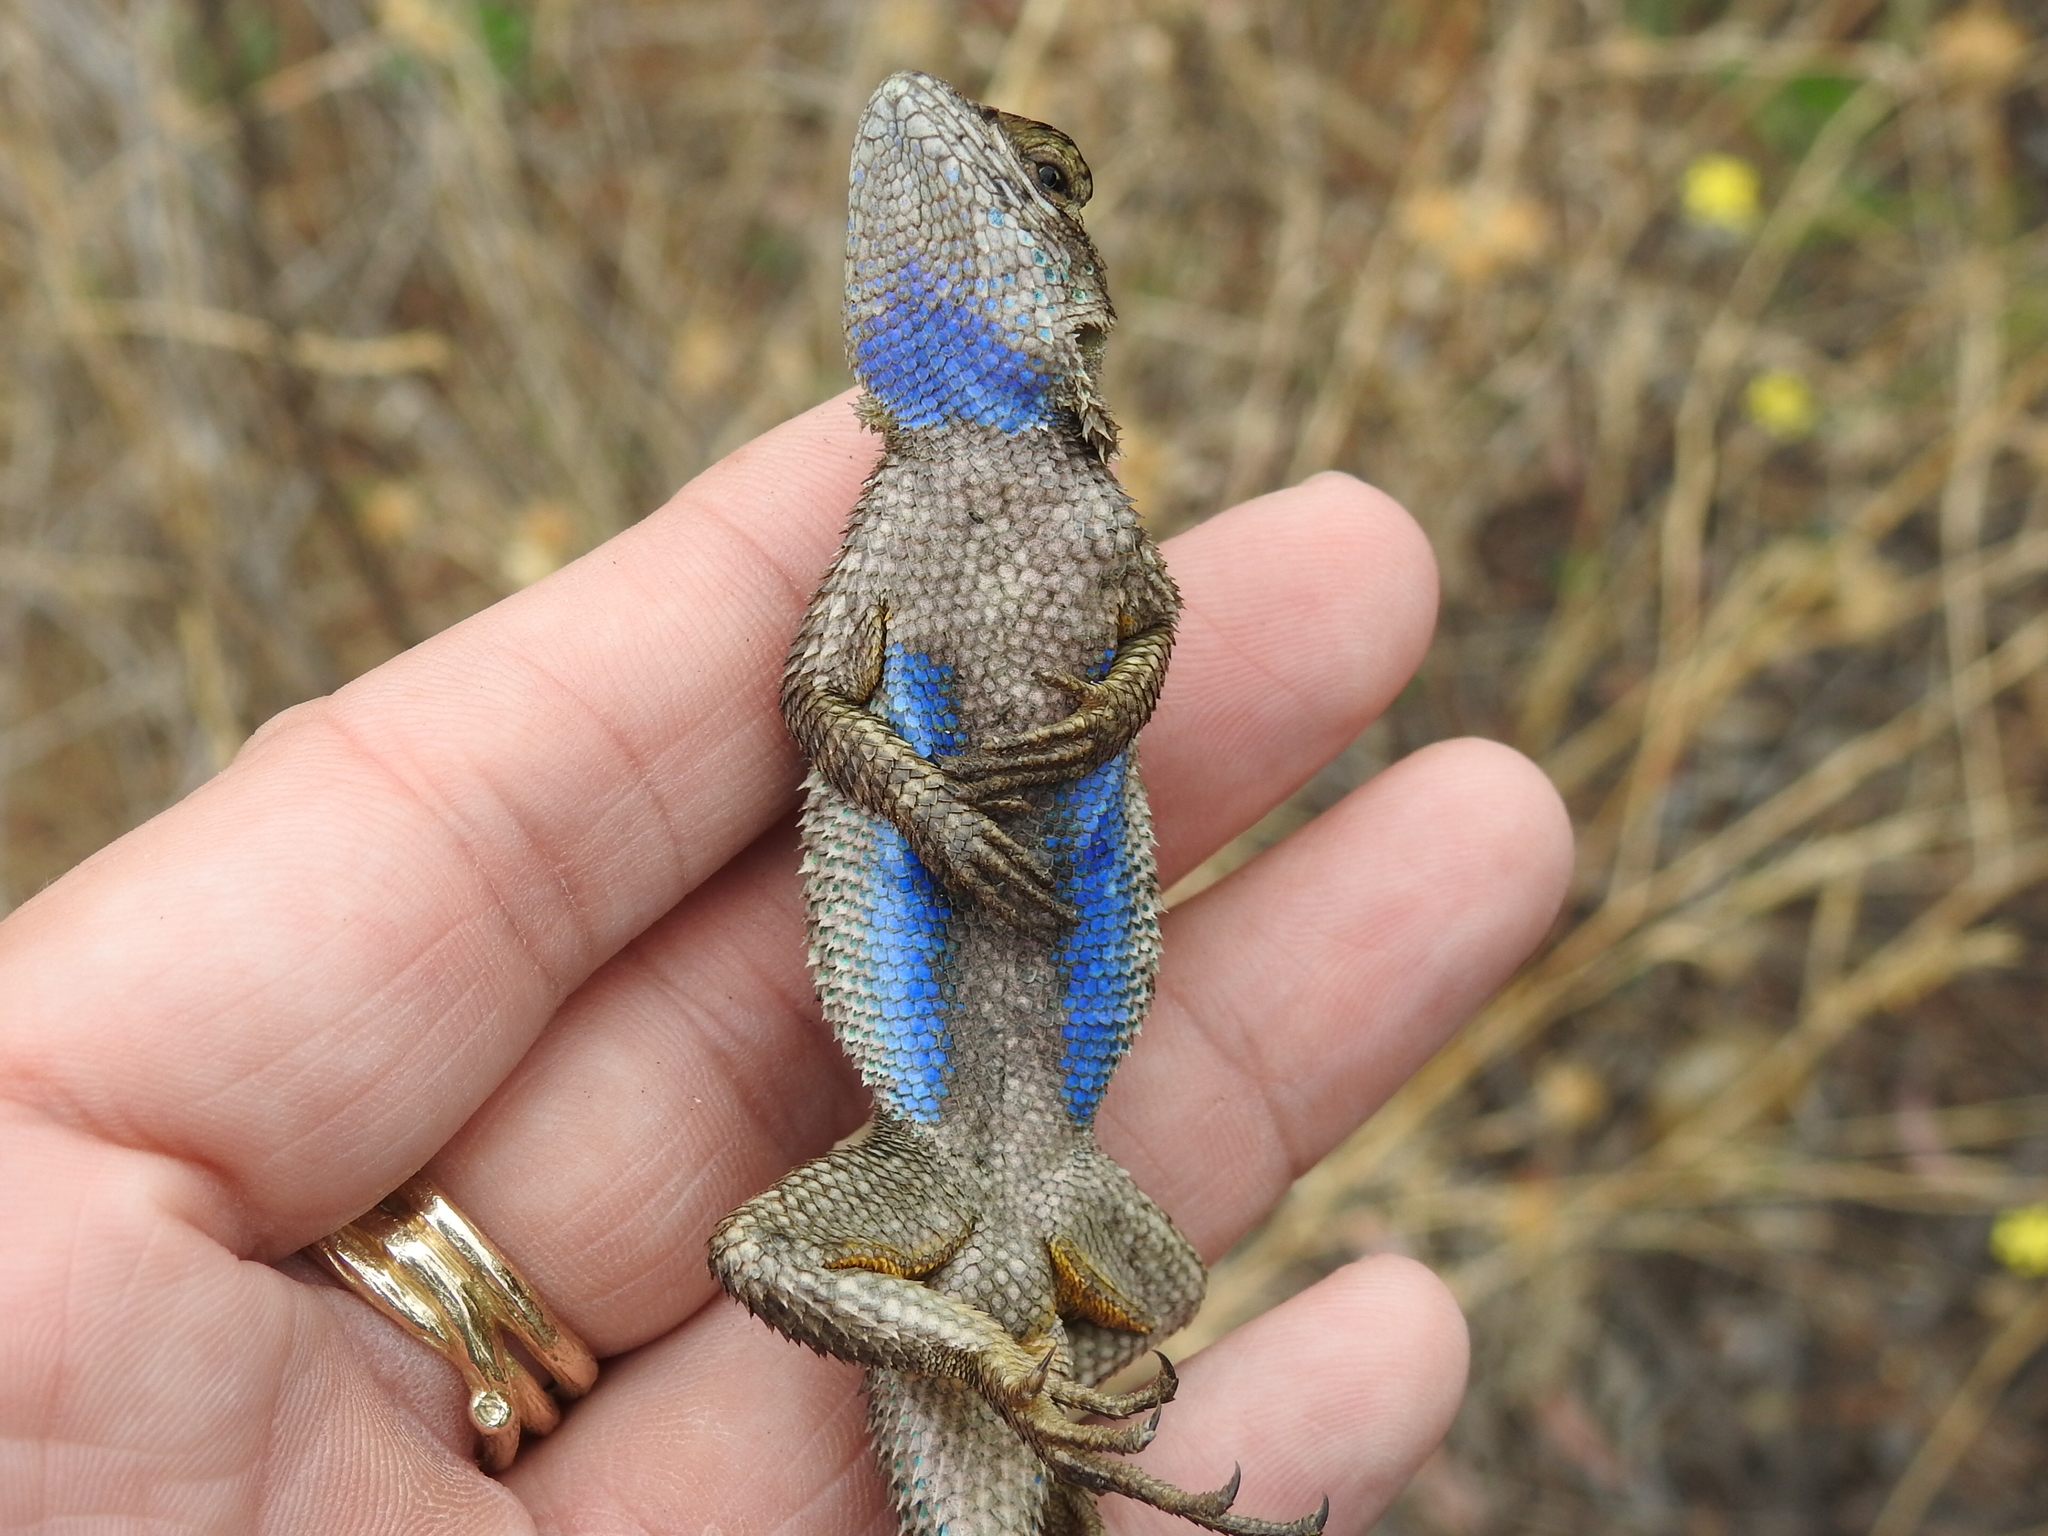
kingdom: Animalia
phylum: Chordata
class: Squamata
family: Phrynosomatidae
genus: Sceloporus
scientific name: Sceloporus occidentalis
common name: Western fence lizard
